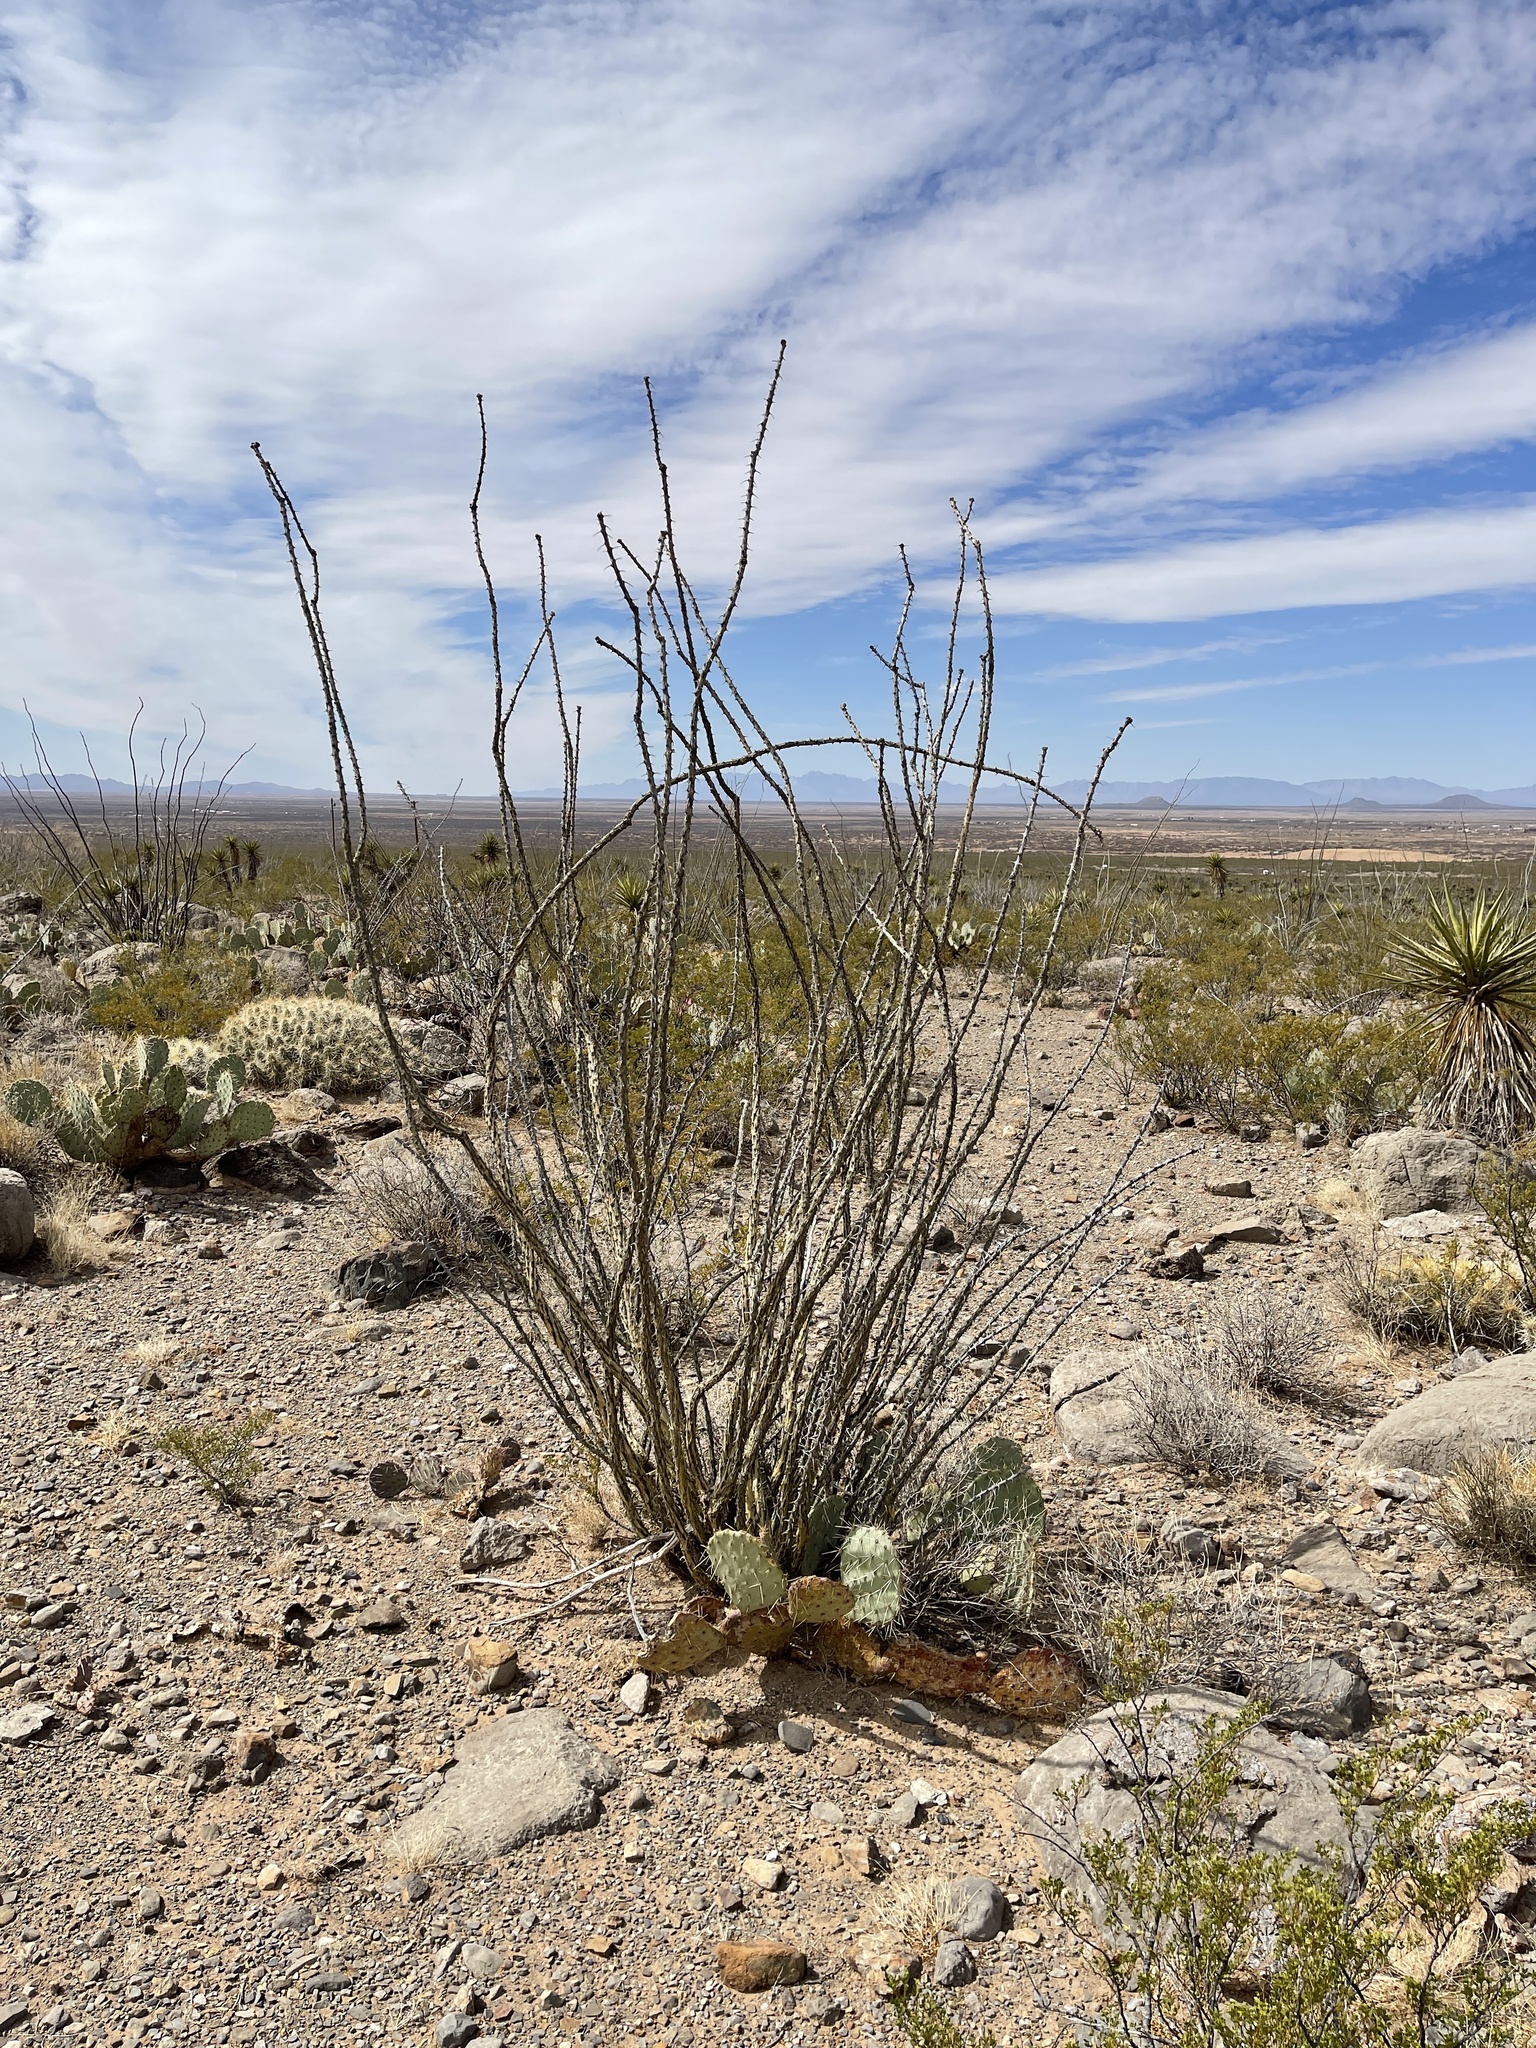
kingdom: Plantae
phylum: Tracheophyta
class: Magnoliopsida
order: Ericales
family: Fouquieriaceae
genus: Fouquieria
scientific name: Fouquieria splendens
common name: Vine-cactus
